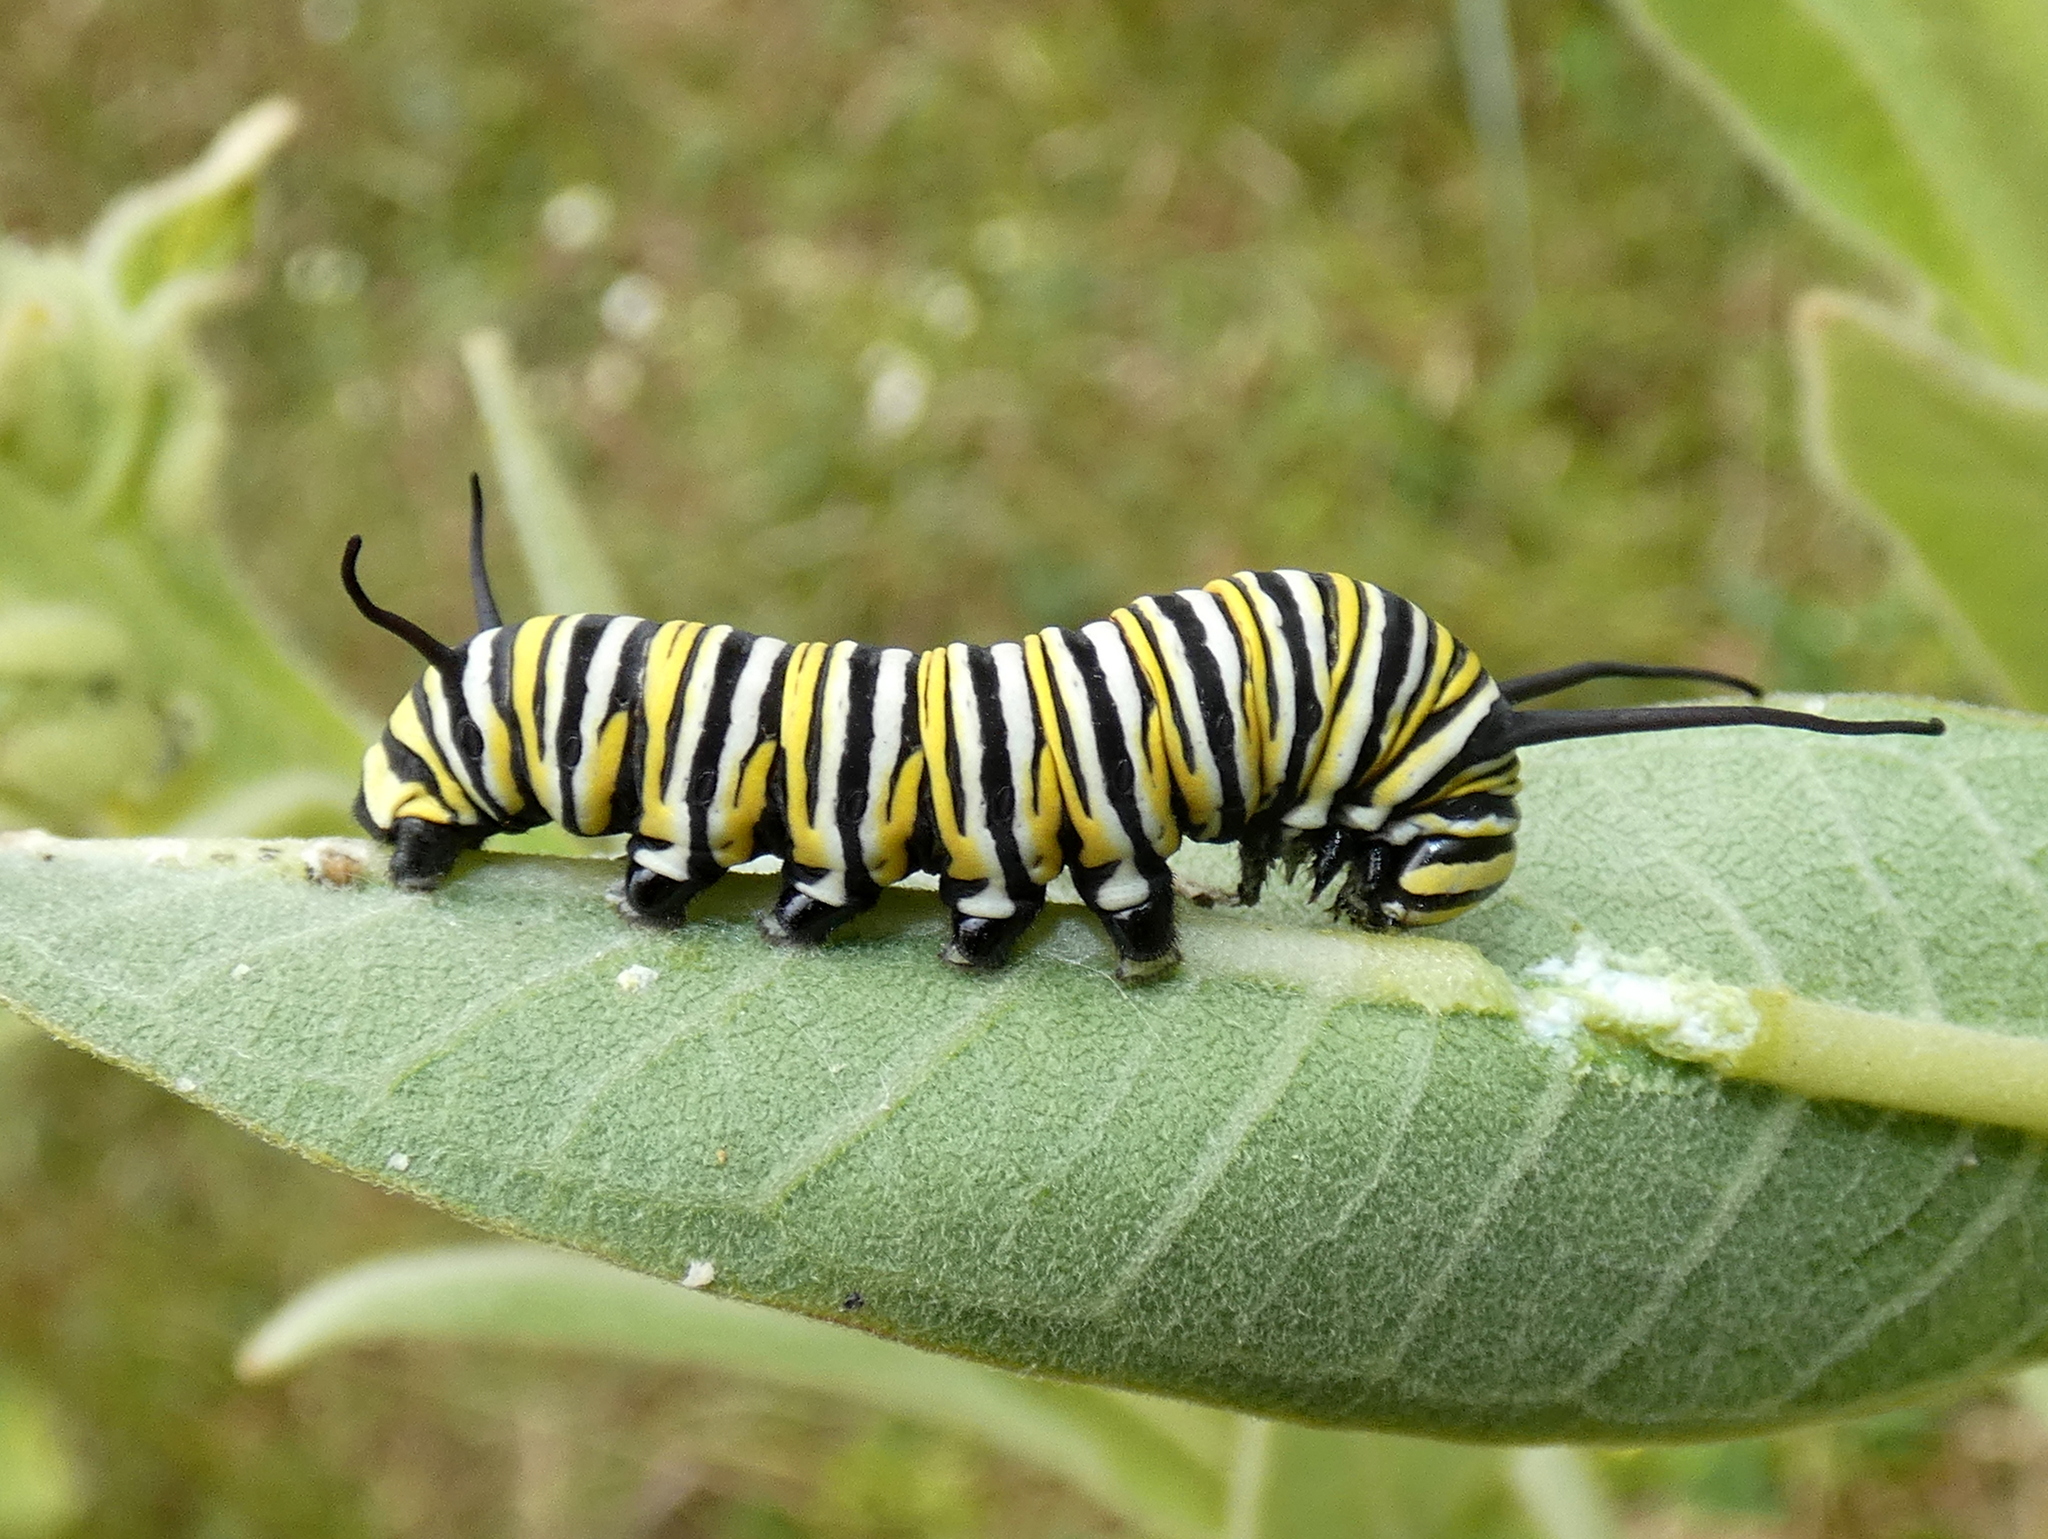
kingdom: Animalia
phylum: Arthropoda
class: Insecta
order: Lepidoptera
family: Nymphalidae
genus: Danaus
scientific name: Danaus plexippus
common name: Monarch
